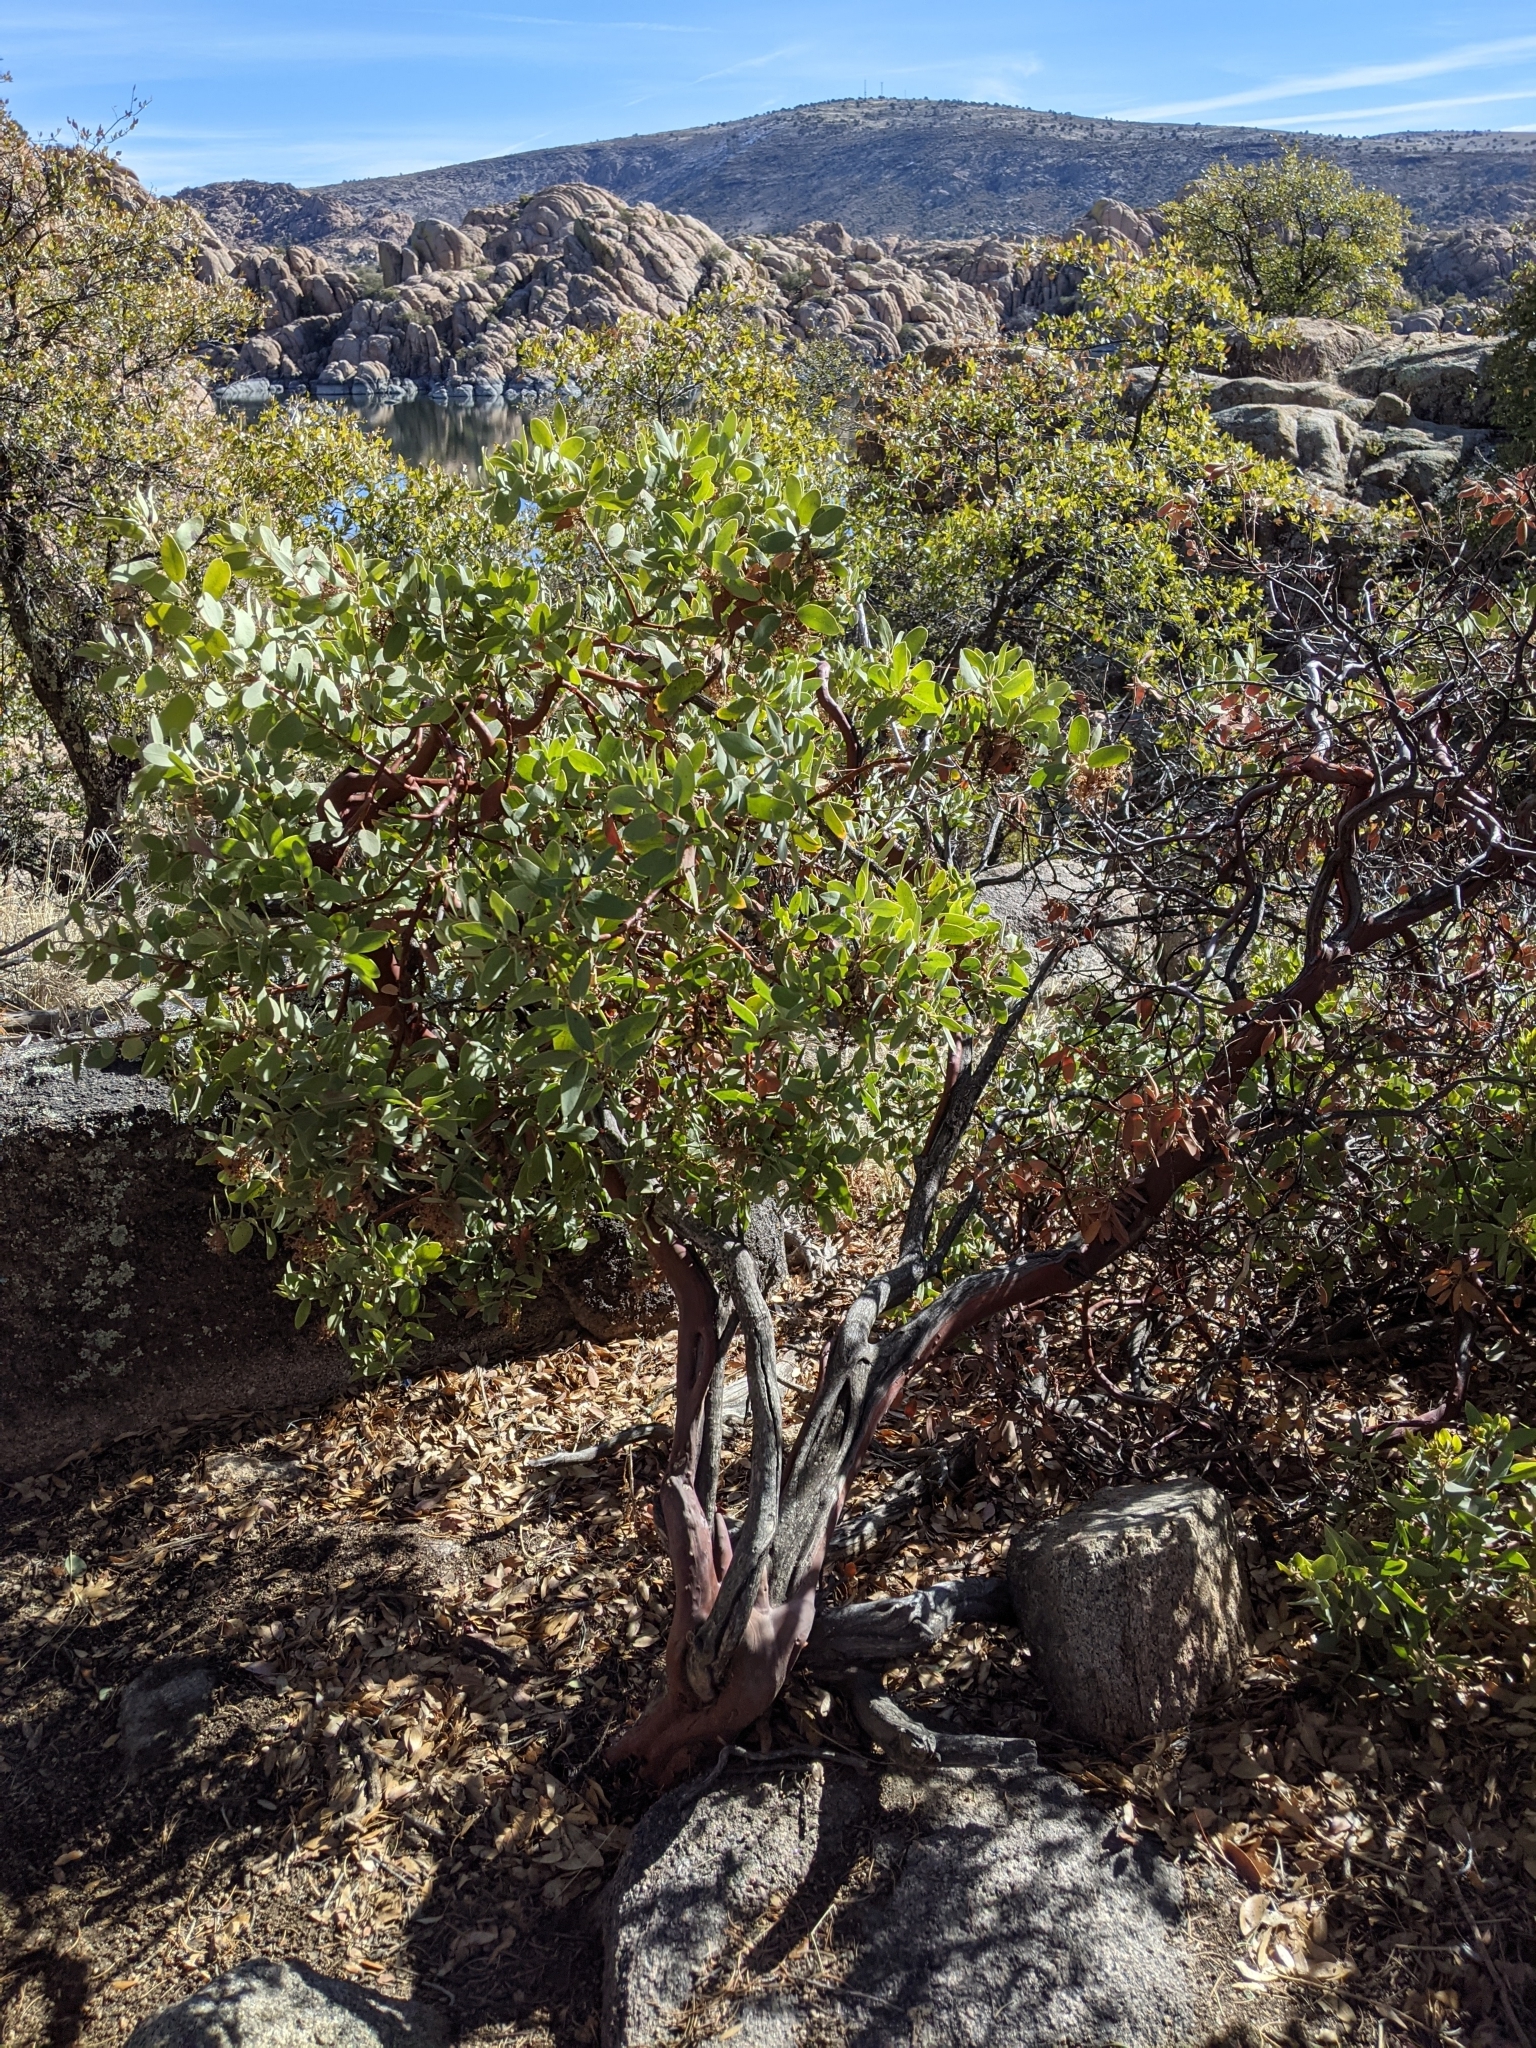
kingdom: Plantae
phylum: Tracheophyta
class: Magnoliopsida
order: Ericales
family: Ericaceae
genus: Arctostaphylos
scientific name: Arctostaphylos pringlei
